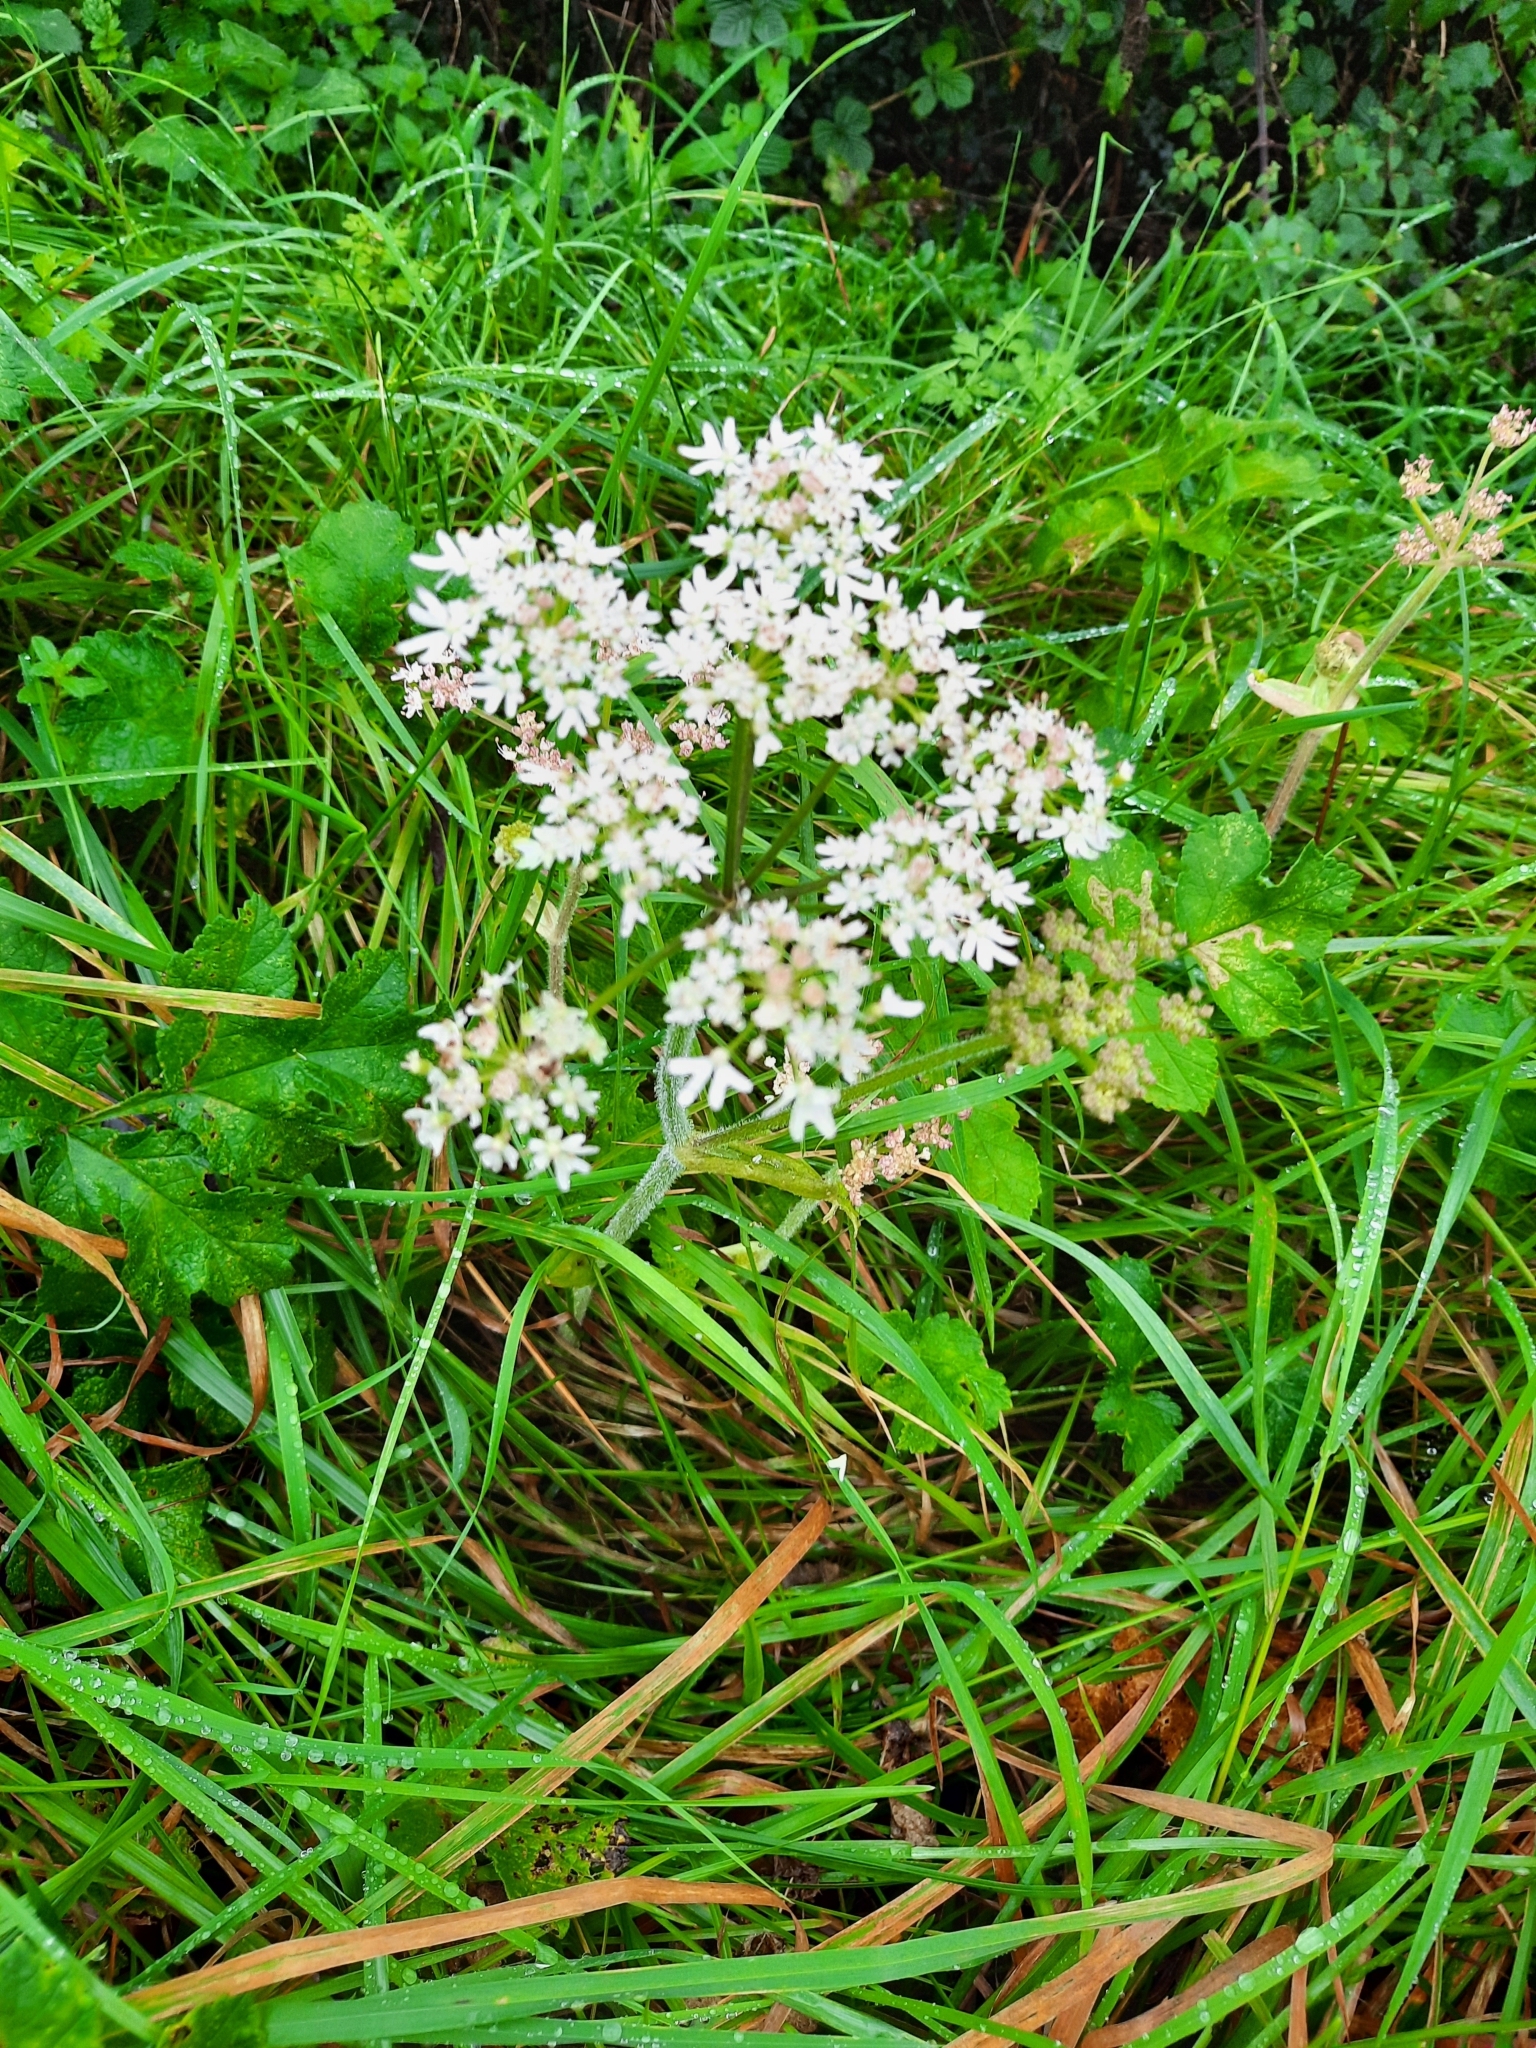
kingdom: Plantae
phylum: Tracheophyta
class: Magnoliopsida
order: Apiales
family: Apiaceae
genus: Heracleum
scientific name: Heracleum sphondylium
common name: Hogweed
